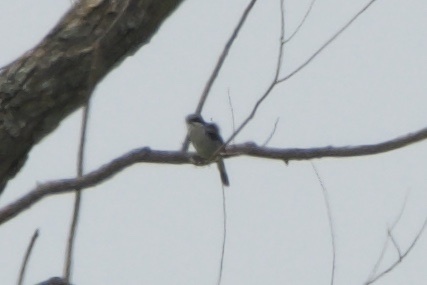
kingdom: Animalia
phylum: Chordata
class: Aves
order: Passeriformes
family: Laniidae
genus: Lanius
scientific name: Lanius ludovicianus
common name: Loggerhead shrike
